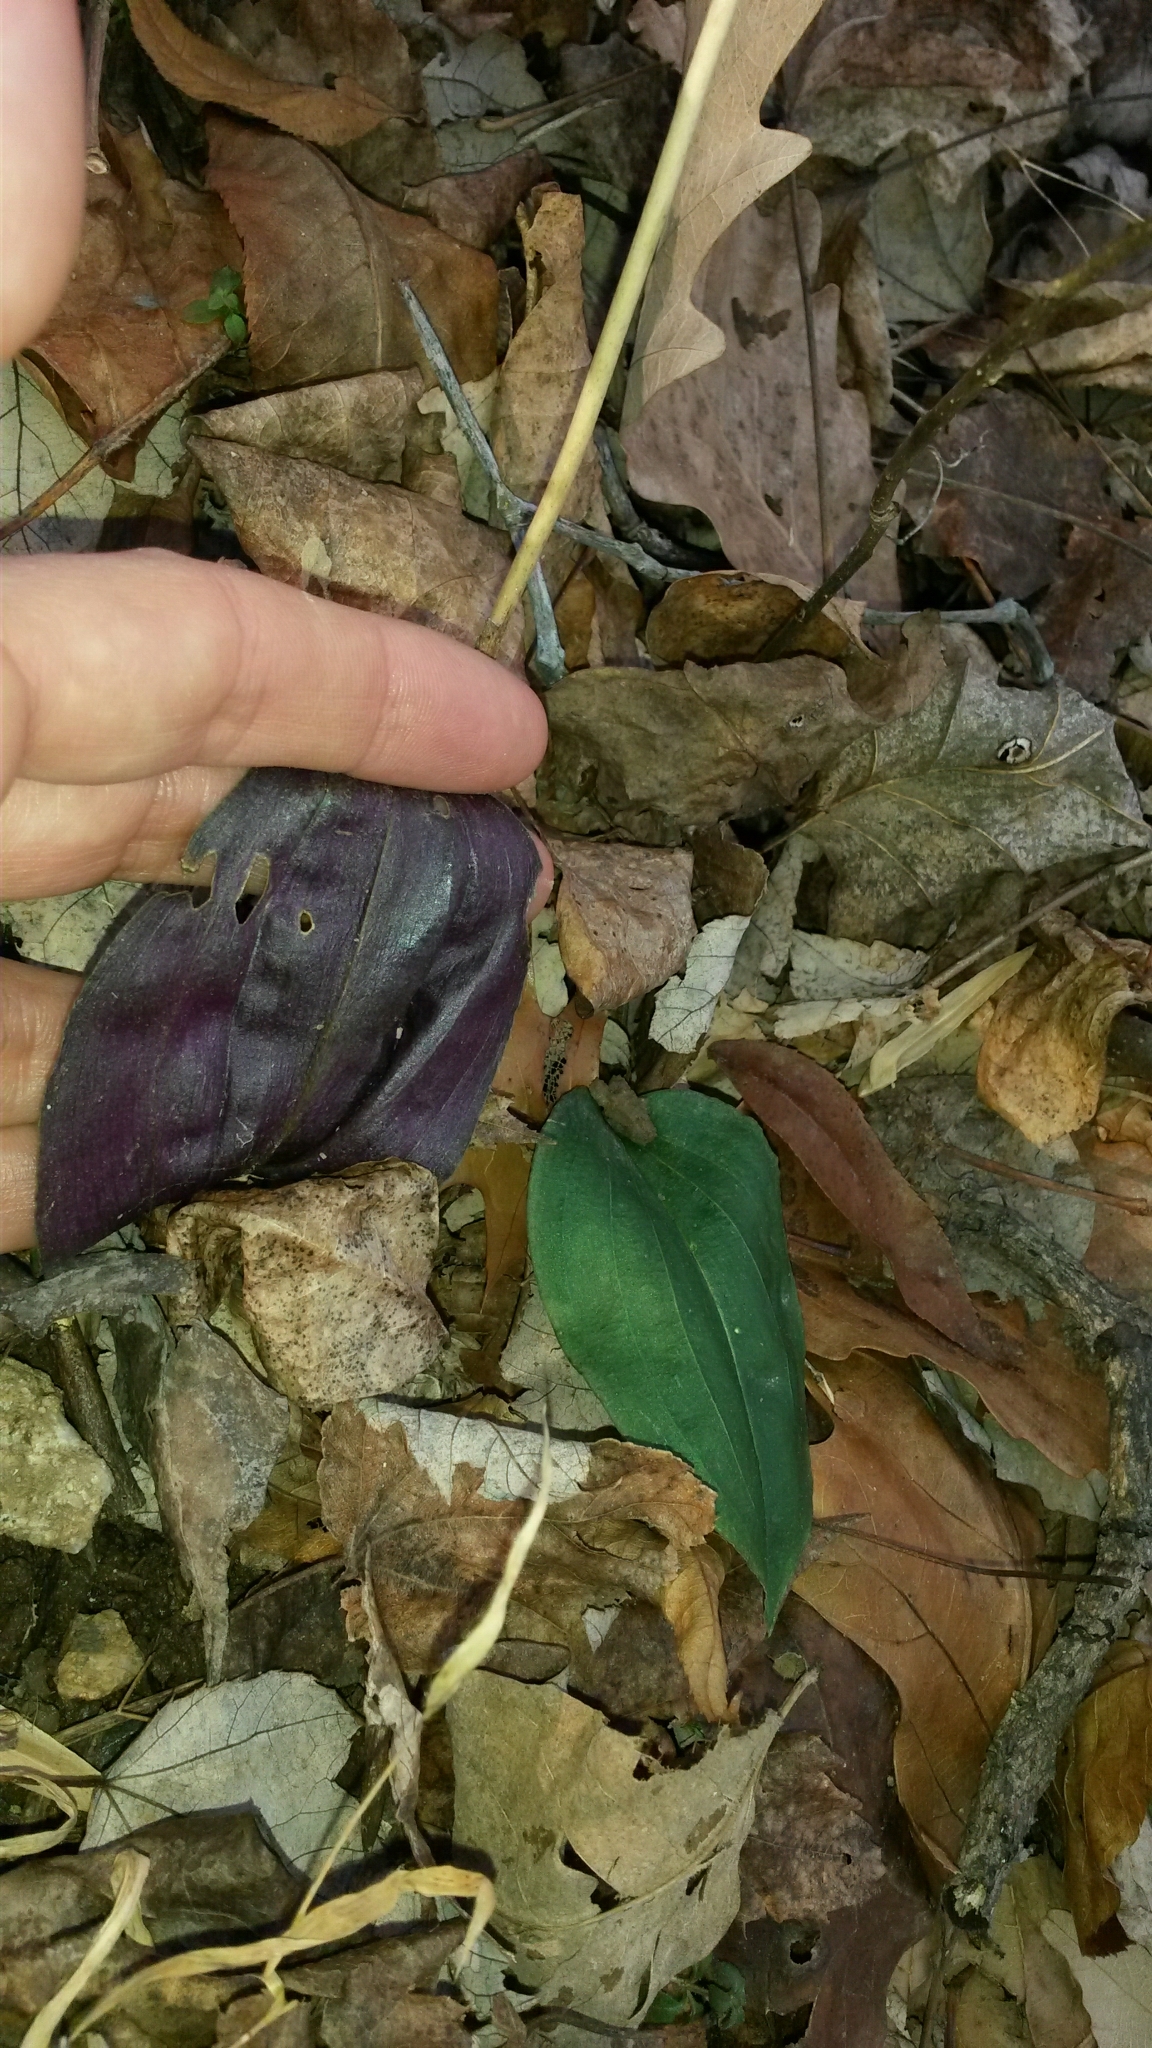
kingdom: Plantae
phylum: Tracheophyta
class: Liliopsida
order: Asparagales
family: Orchidaceae
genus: Tipularia
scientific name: Tipularia discolor
